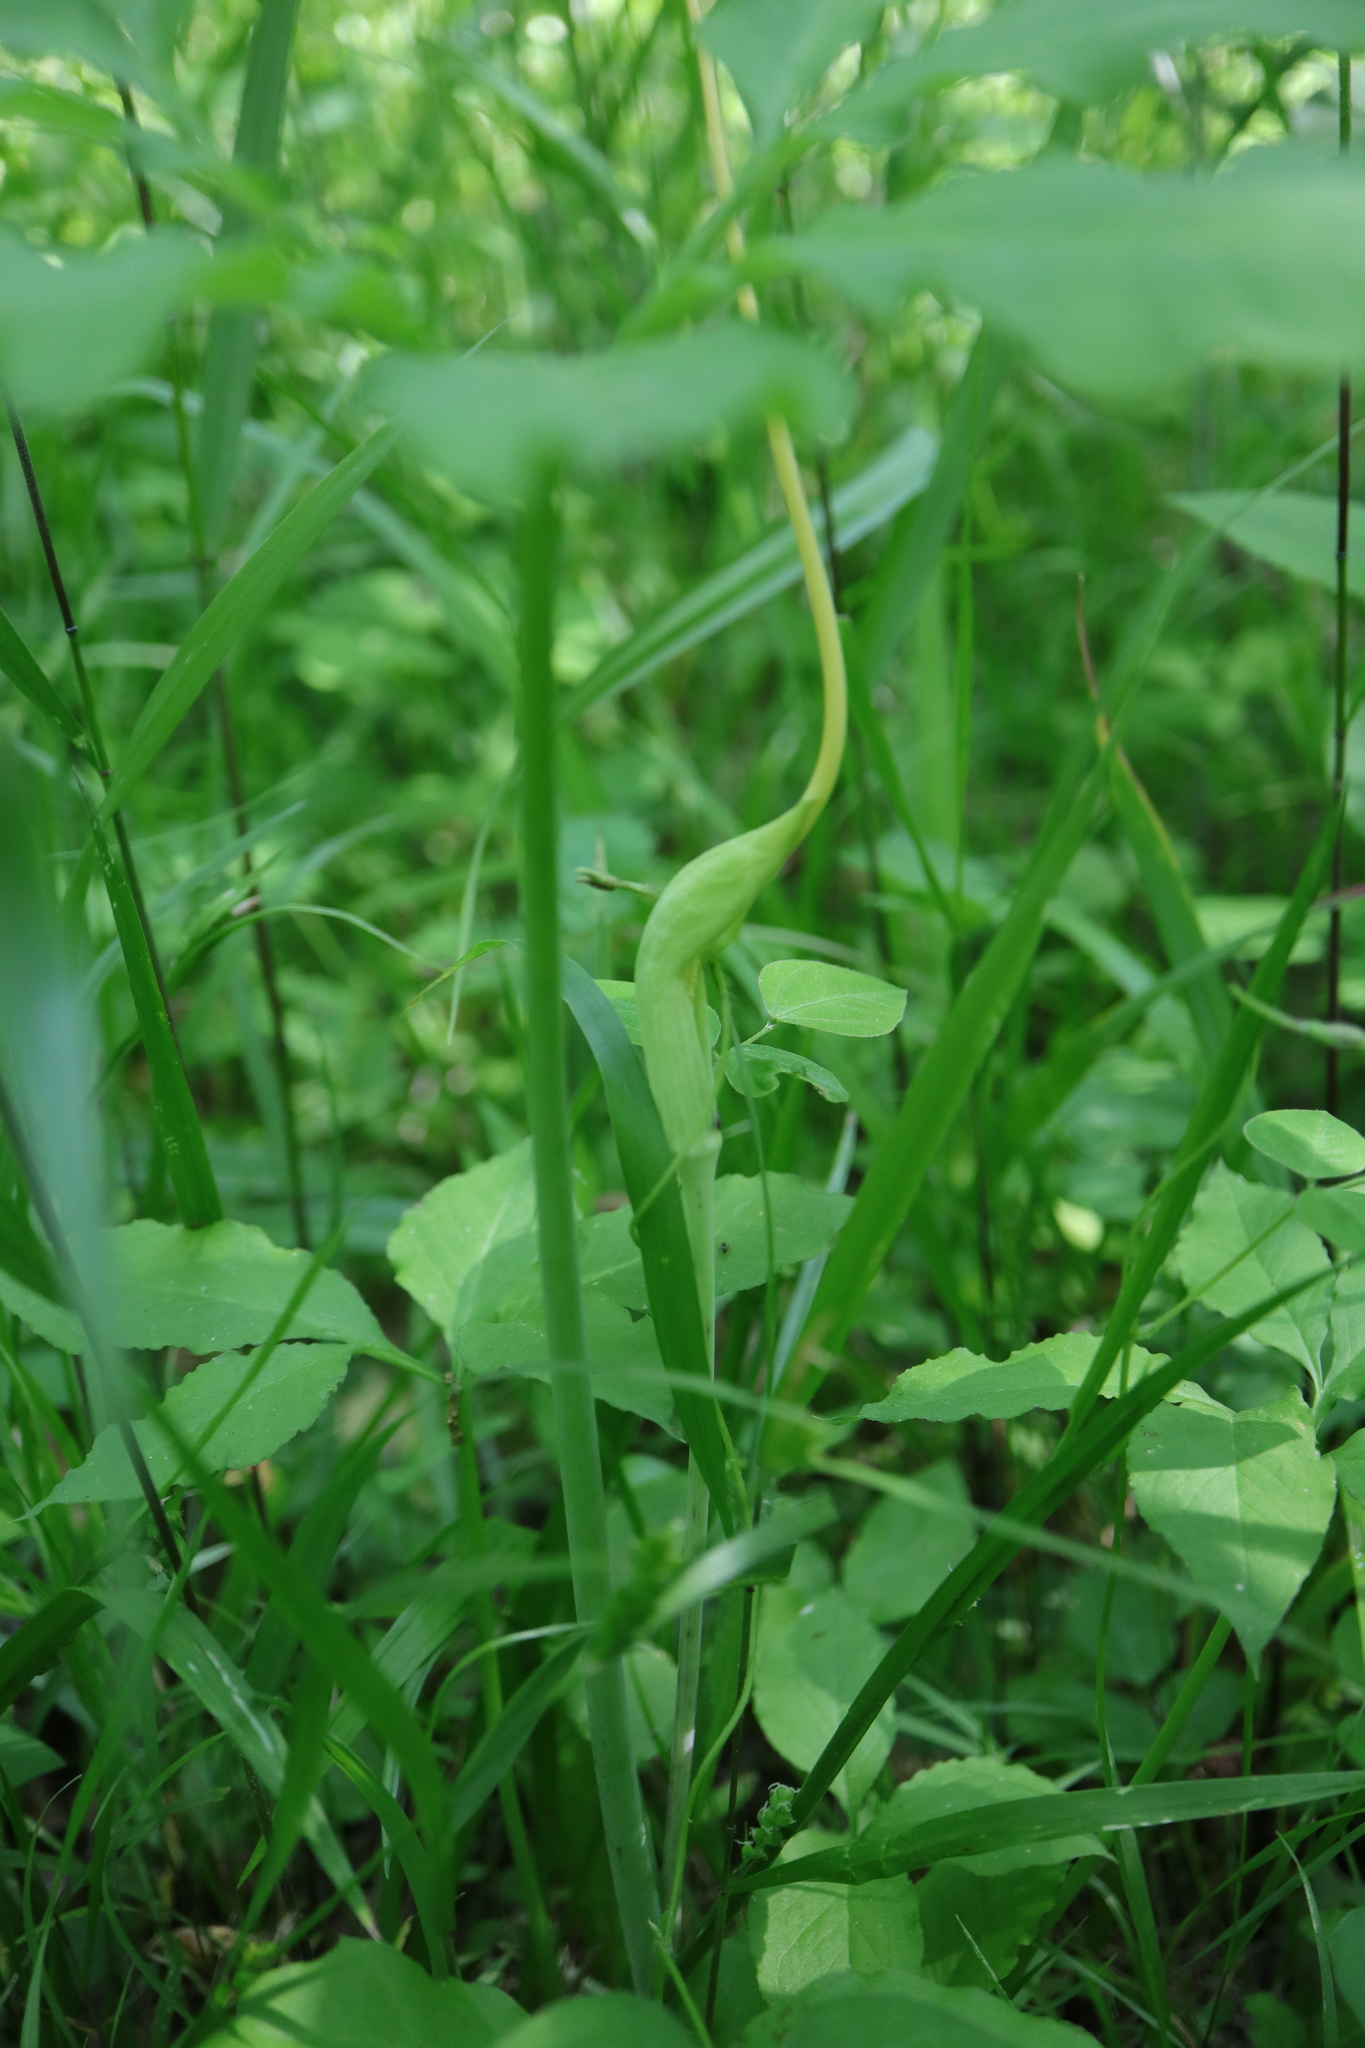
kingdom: Plantae
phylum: Tracheophyta
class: Liliopsida
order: Alismatales
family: Araceae
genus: Arisaema
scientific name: Arisaema dracontium
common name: Dragon-arum
